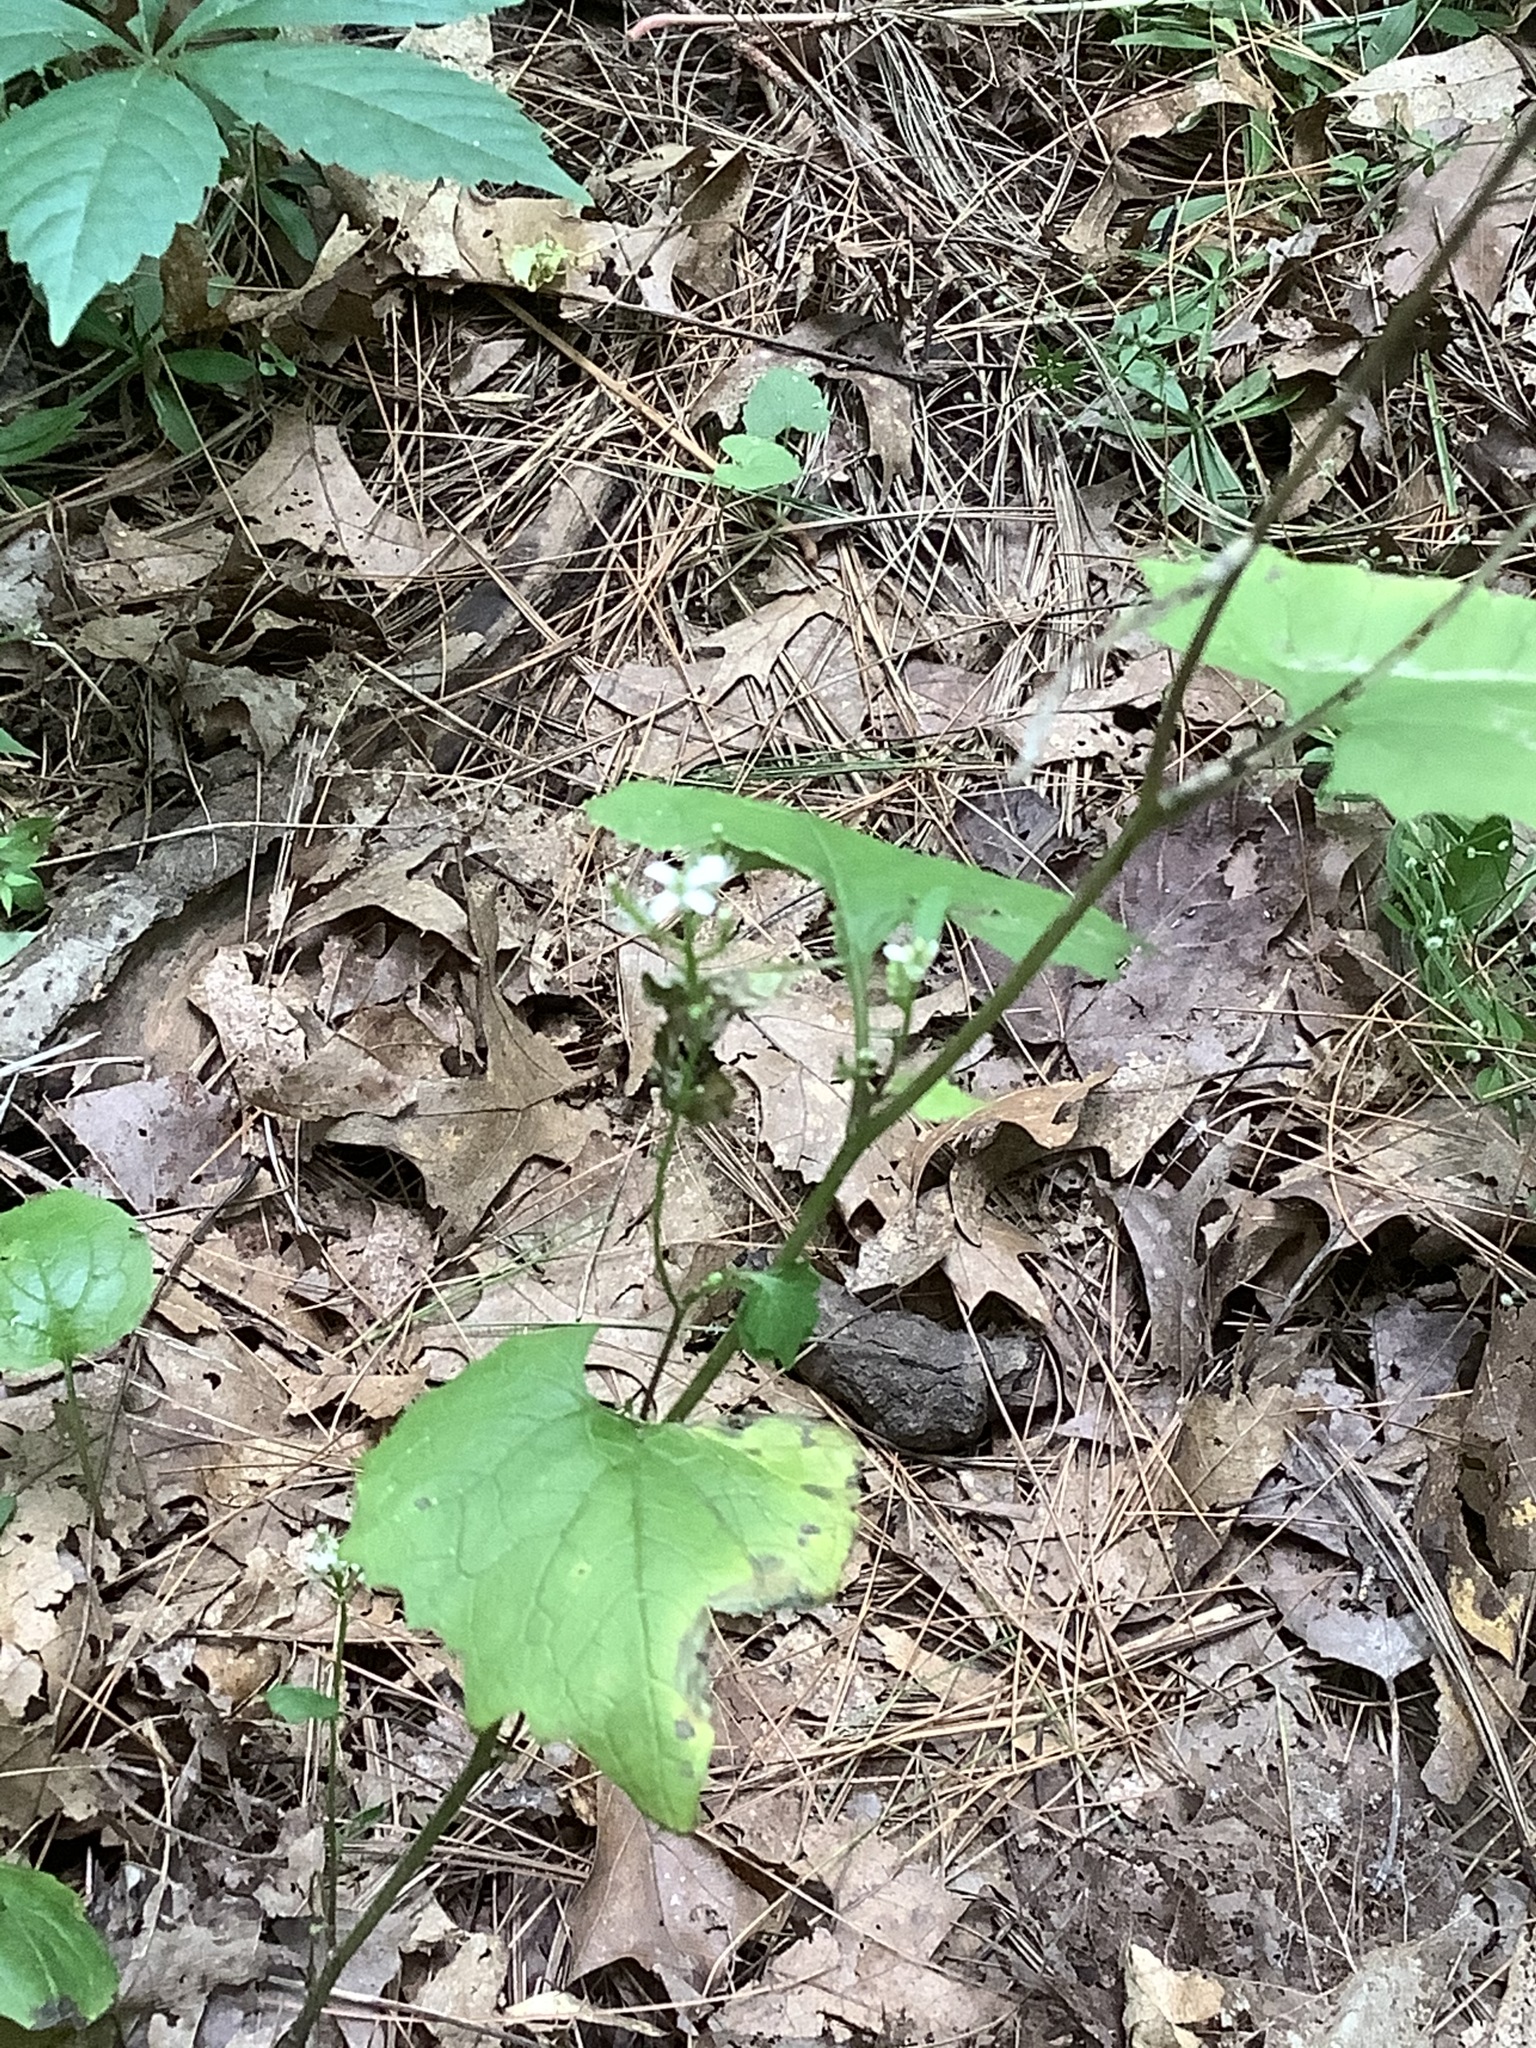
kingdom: Plantae
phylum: Tracheophyta
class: Magnoliopsida
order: Brassicales
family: Brassicaceae
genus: Alliaria
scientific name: Alliaria petiolata
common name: Garlic mustard
